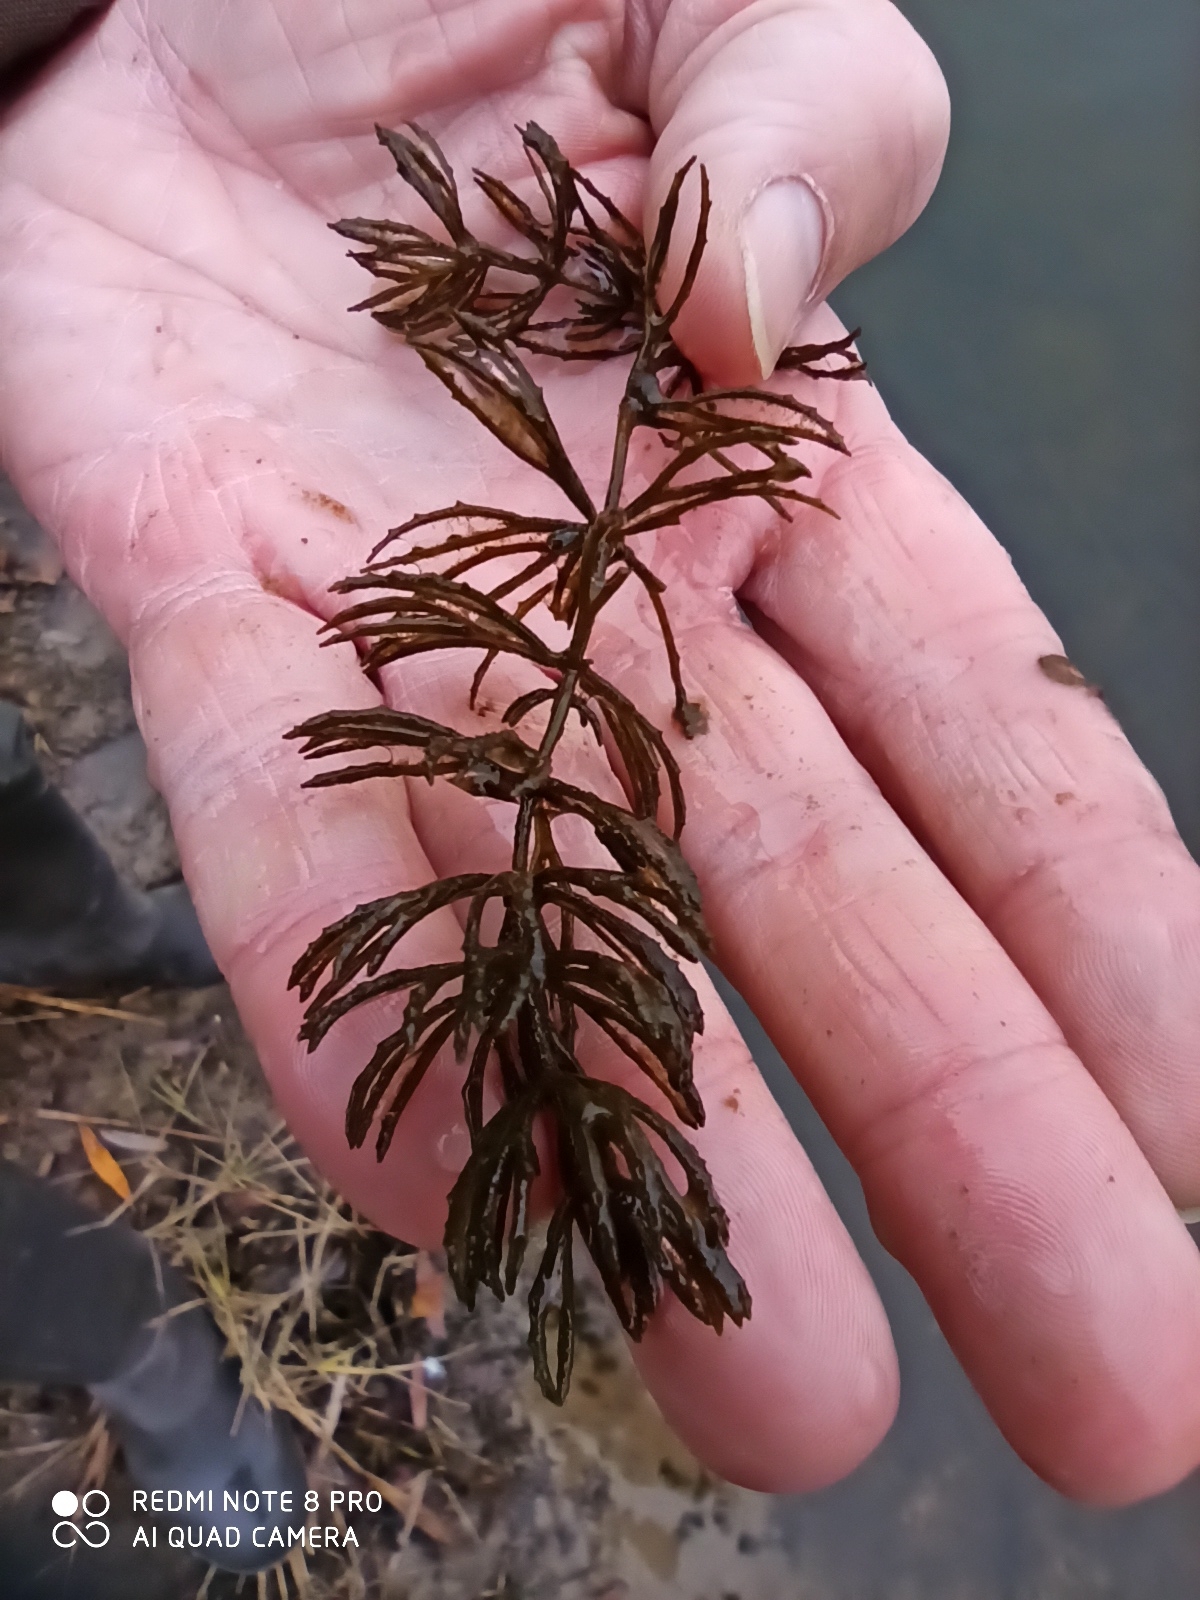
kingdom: Plantae
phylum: Tracheophyta
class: Magnoliopsida
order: Ceratophyllales
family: Ceratophyllaceae
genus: Ceratophyllum
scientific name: Ceratophyllum demersum
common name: Rigid hornwort
